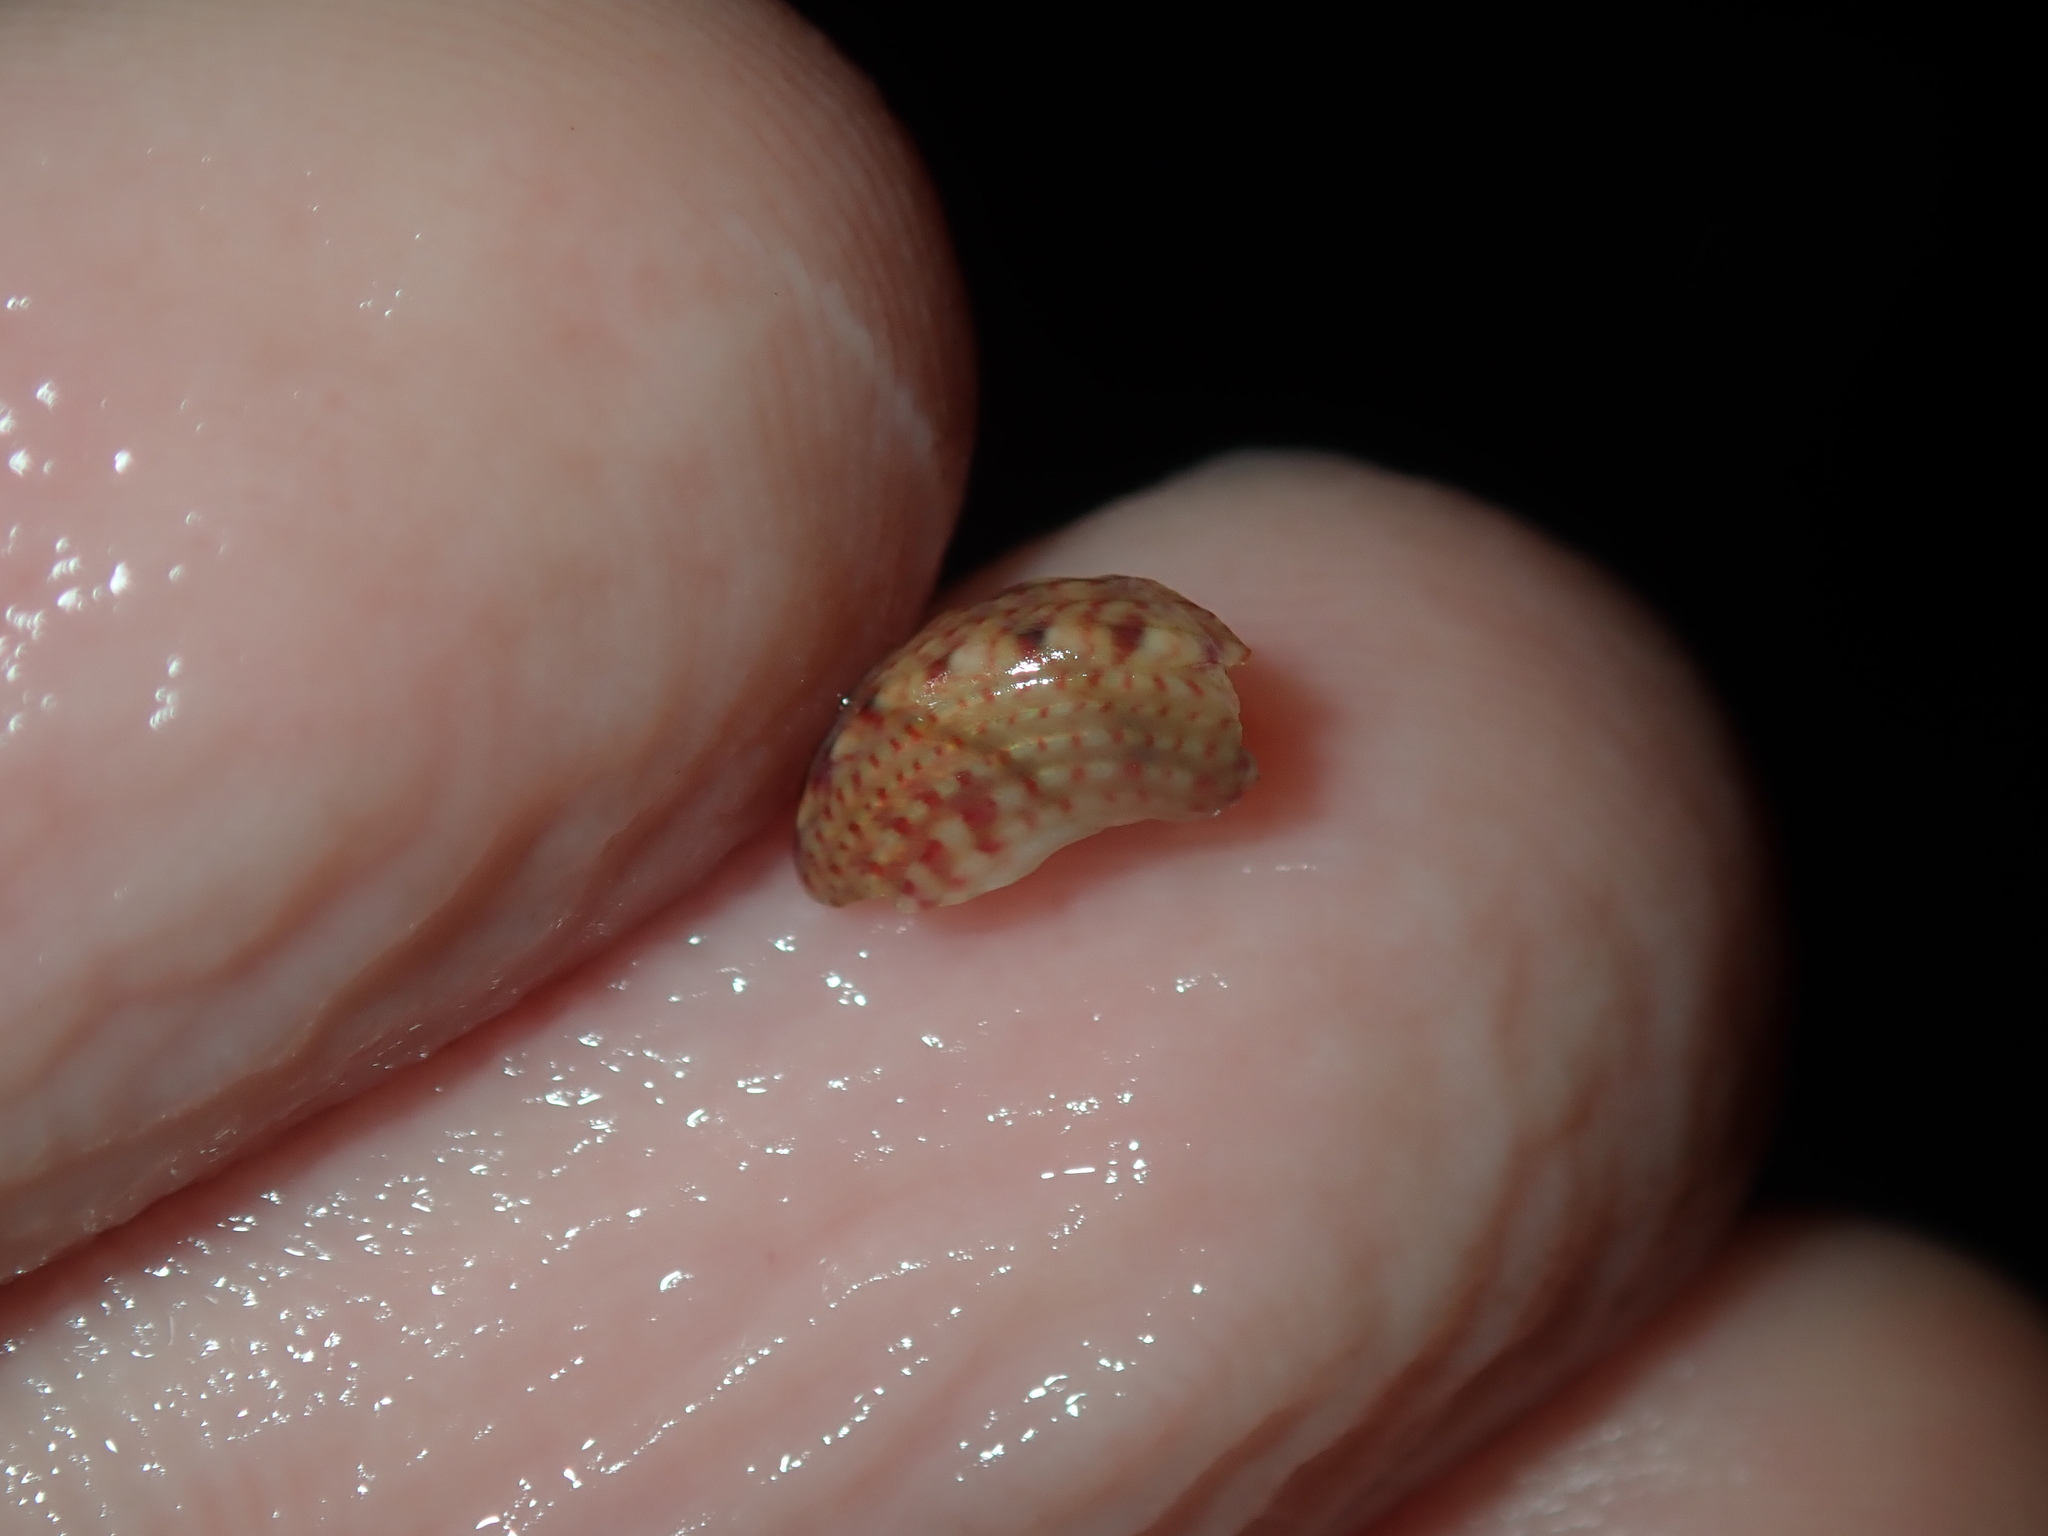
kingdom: Animalia
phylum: Mollusca
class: Gastropoda
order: Trochida
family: Trochidae
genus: Cantharidella
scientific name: Cantharidella picturata
